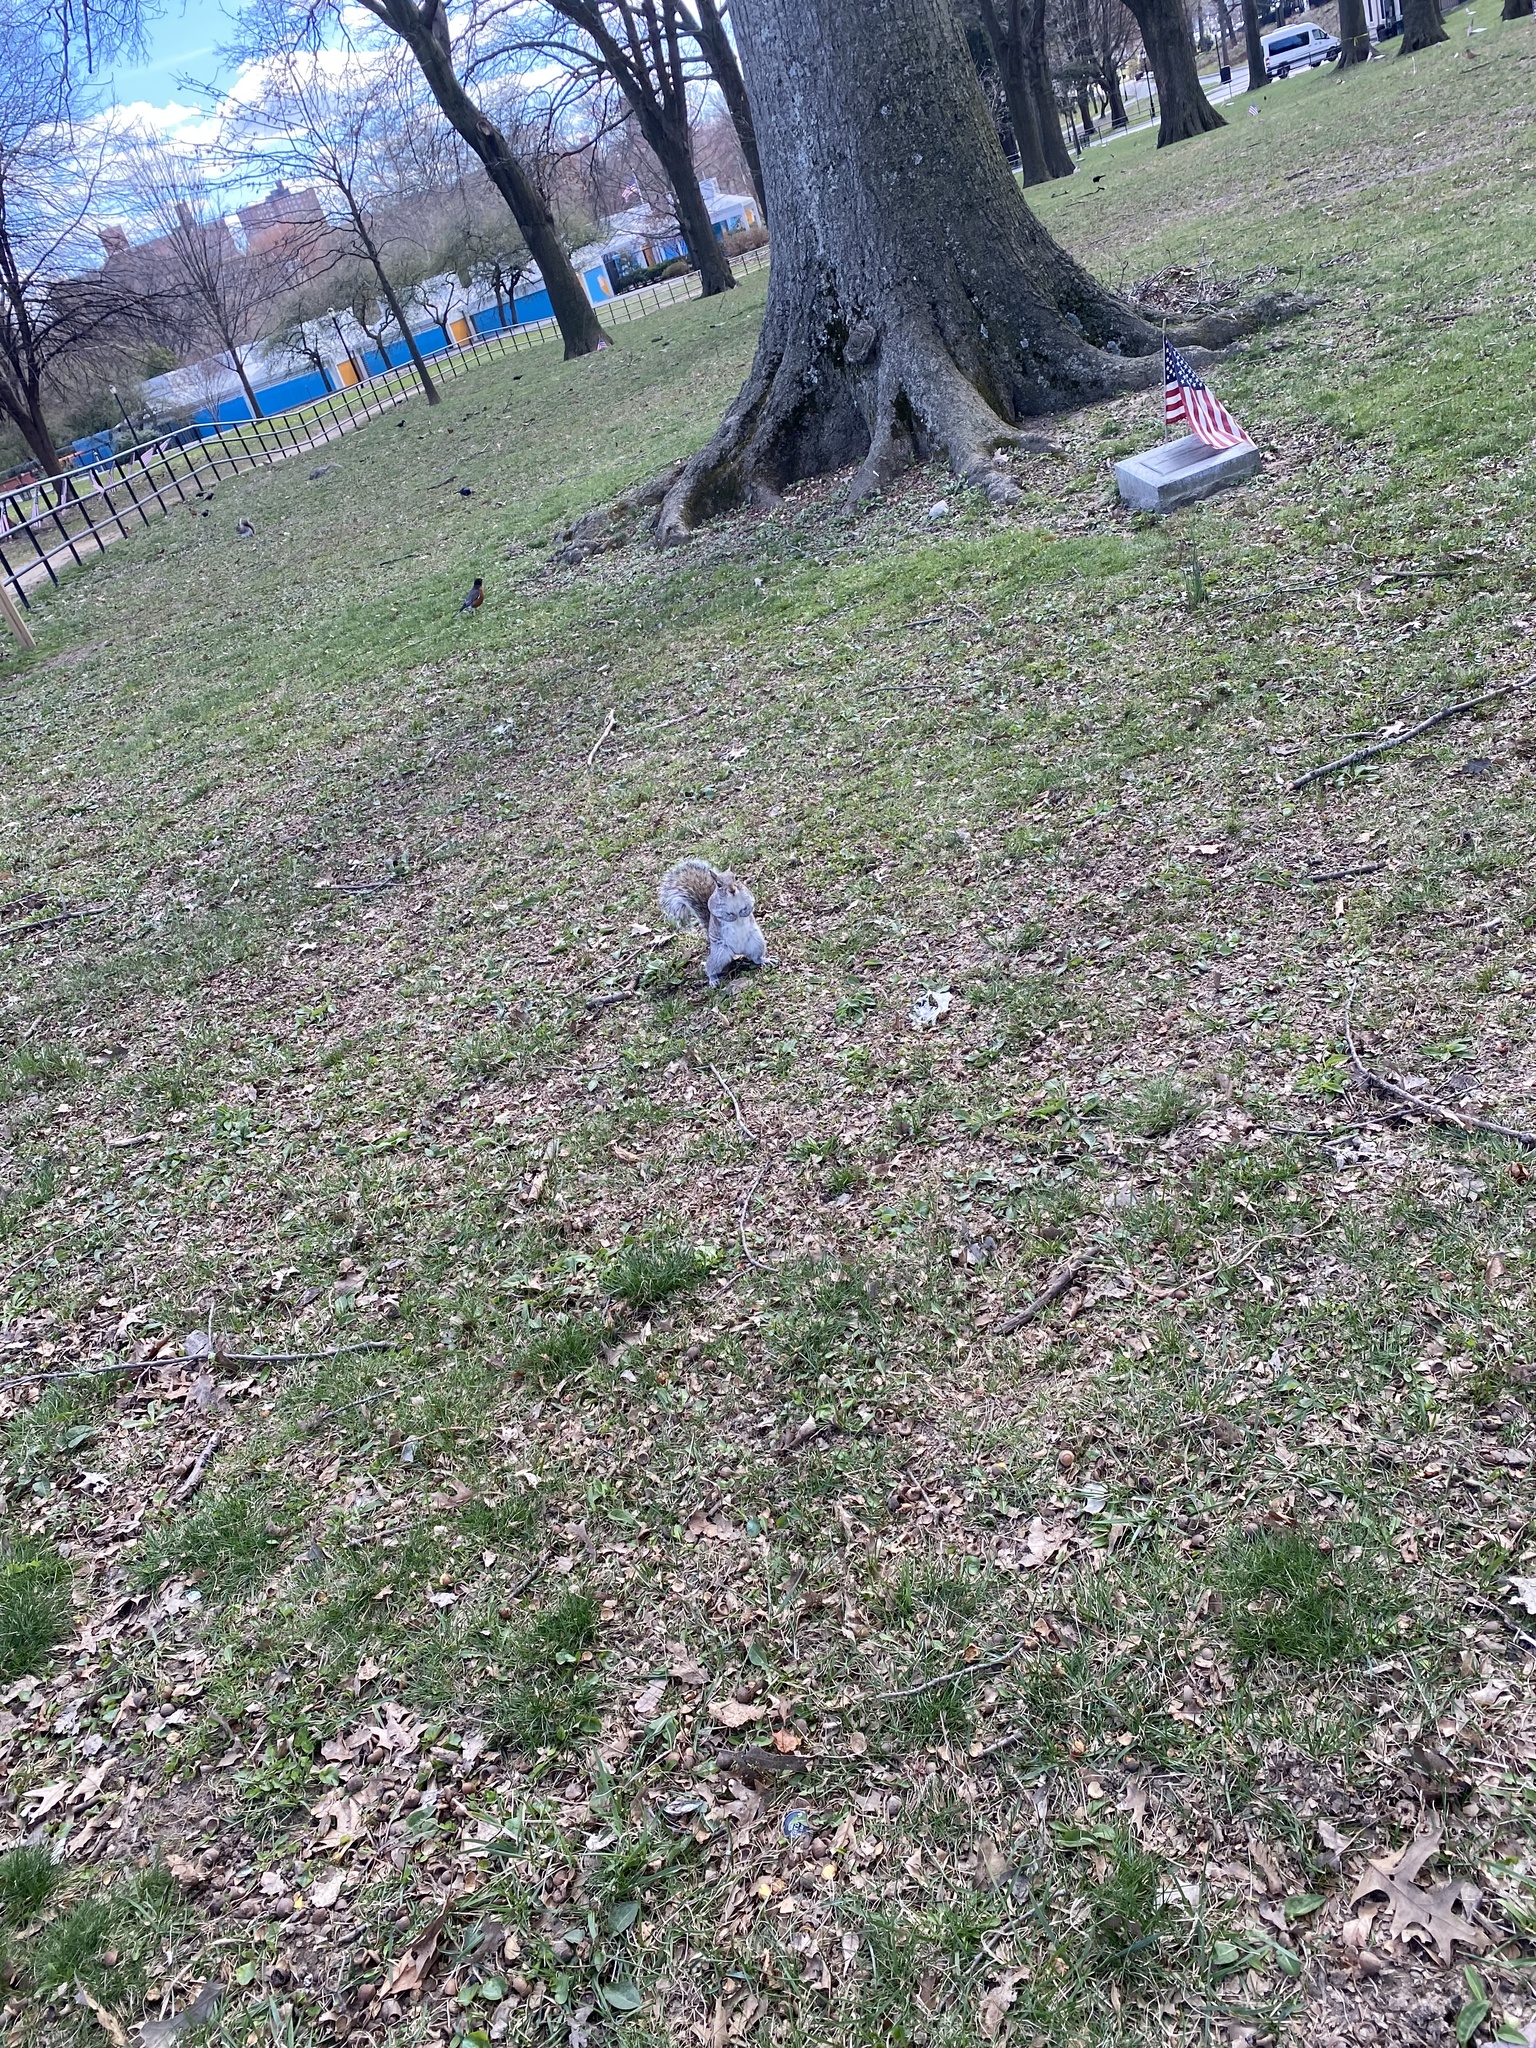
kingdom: Animalia
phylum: Chordata
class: Mammalia
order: Rodentia
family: Sciuridae
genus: Sciurus
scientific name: Sciurus carolinensis
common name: Eastern gray squirrel
